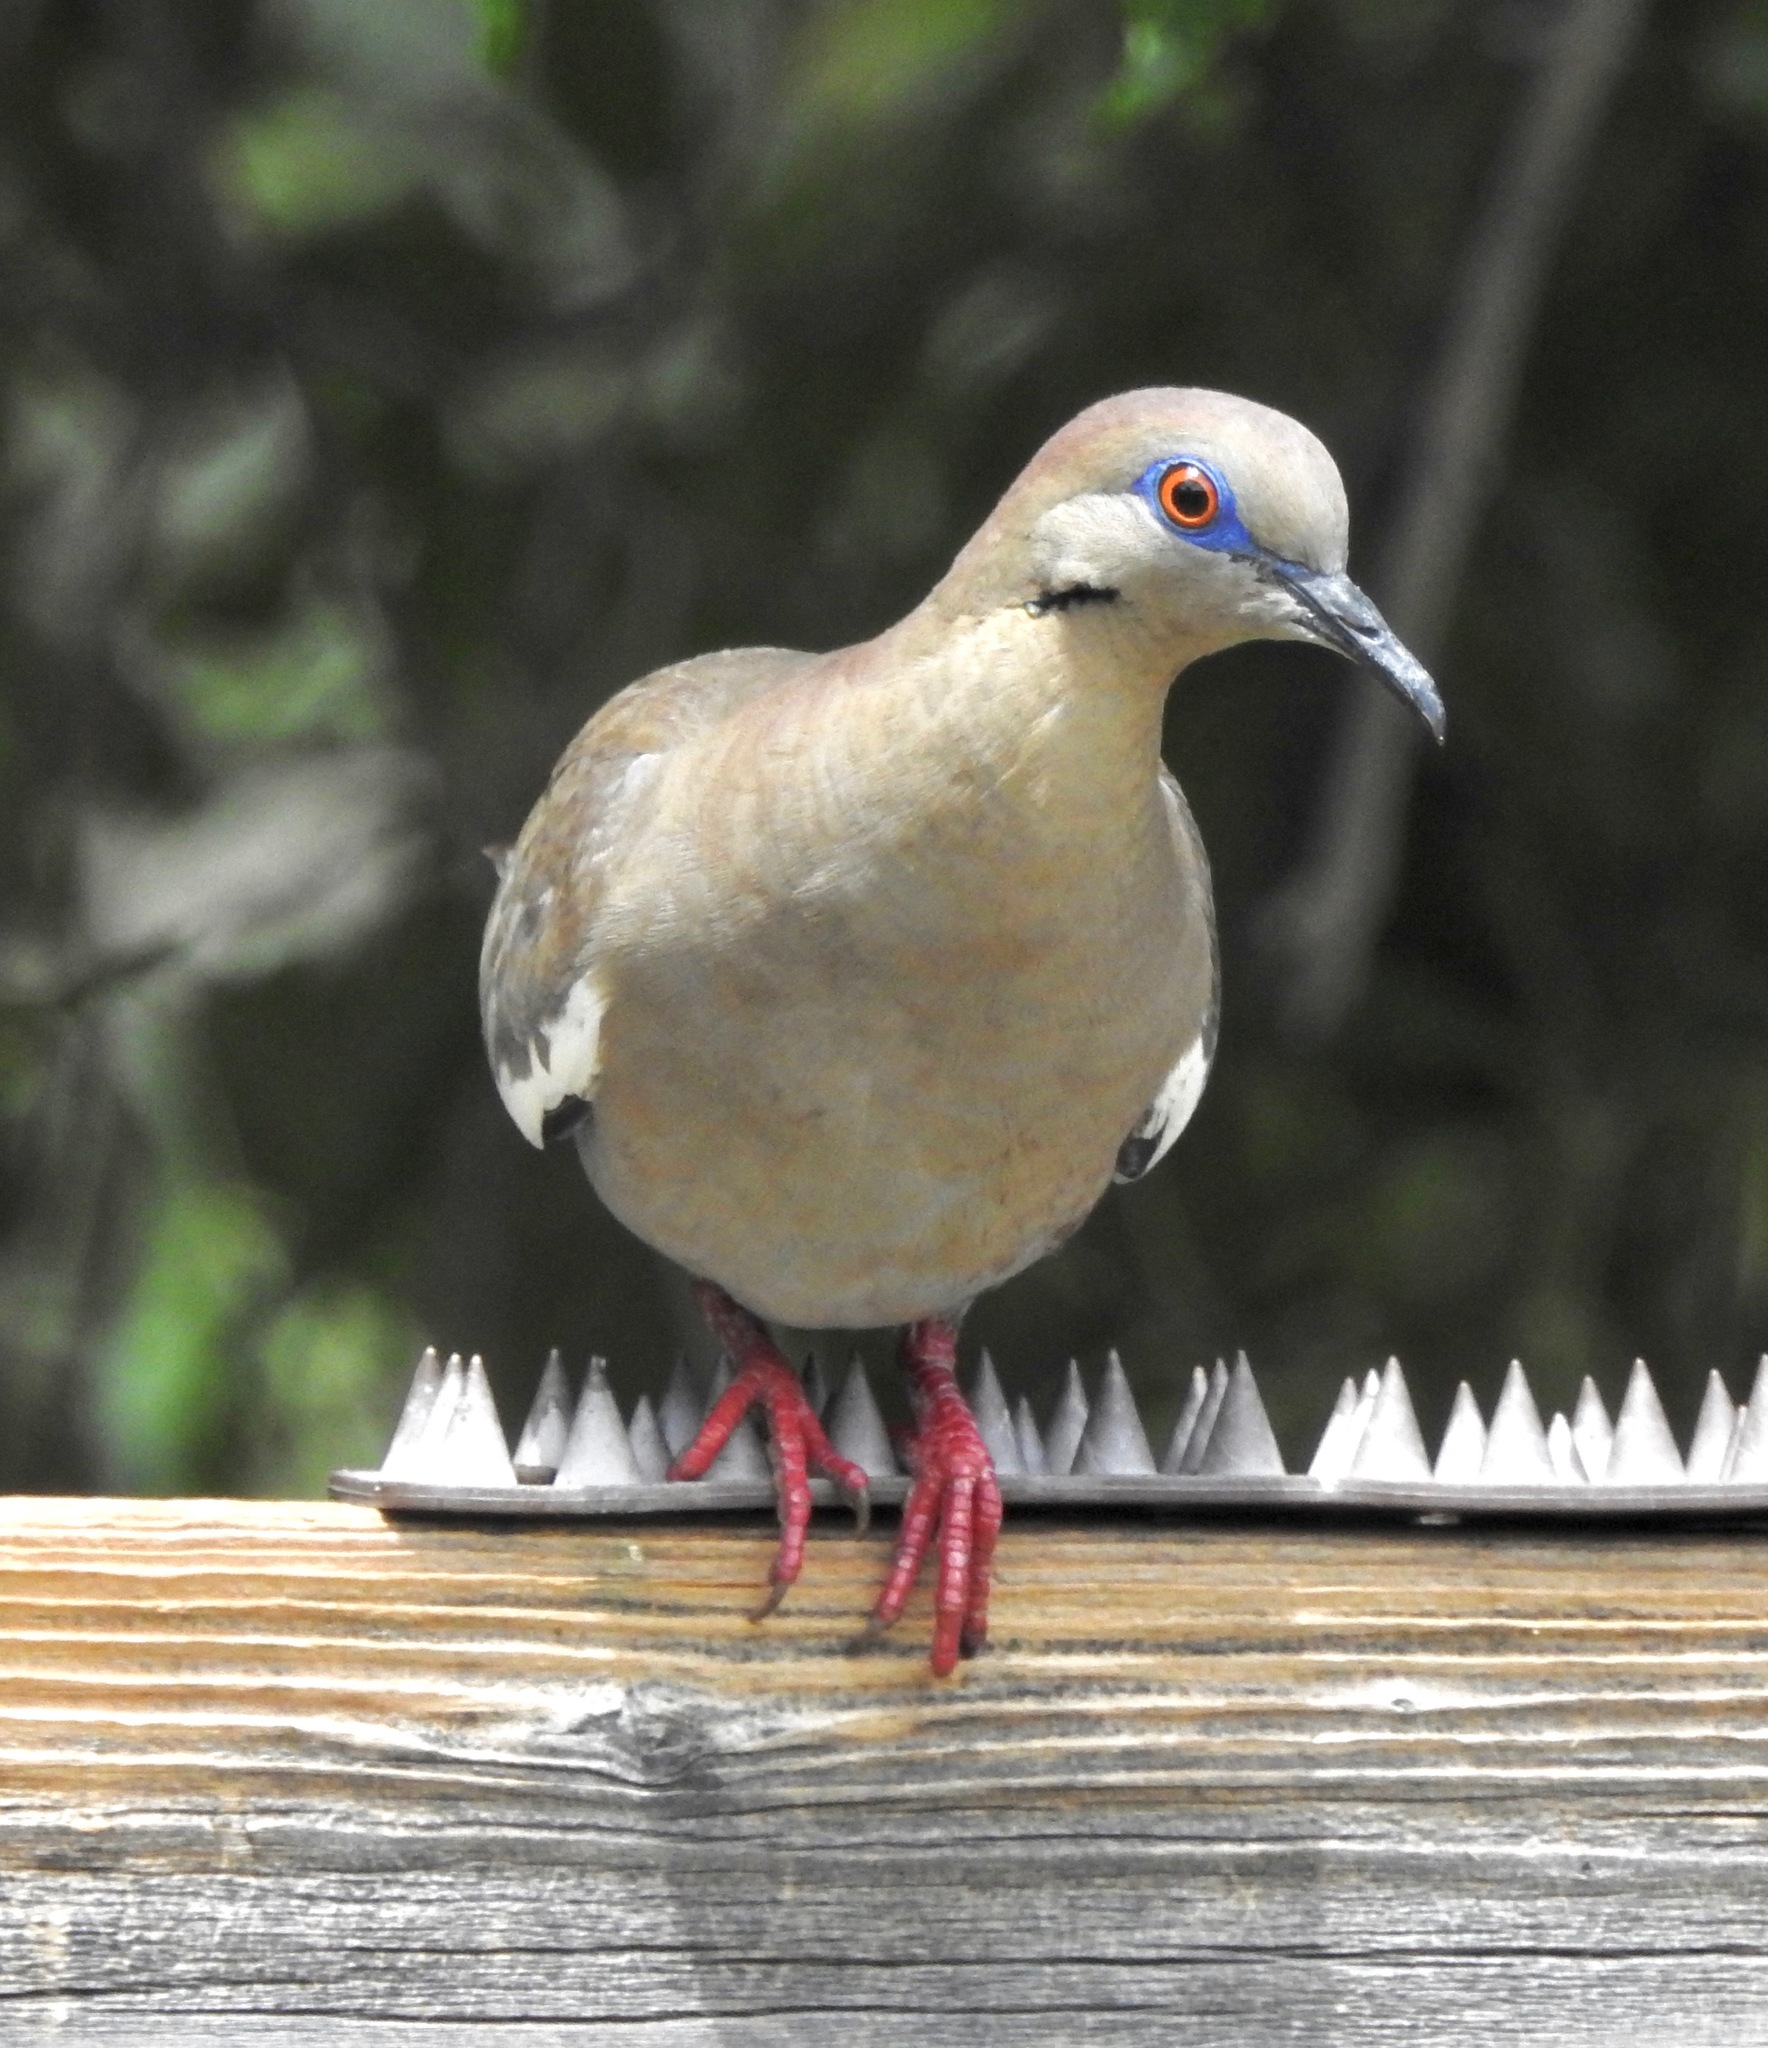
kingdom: Animalia
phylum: Chordata
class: Aves
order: Columbiformes
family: Columbidae
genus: Zenaida
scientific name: Zenaida asiatica
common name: White-winged dove
